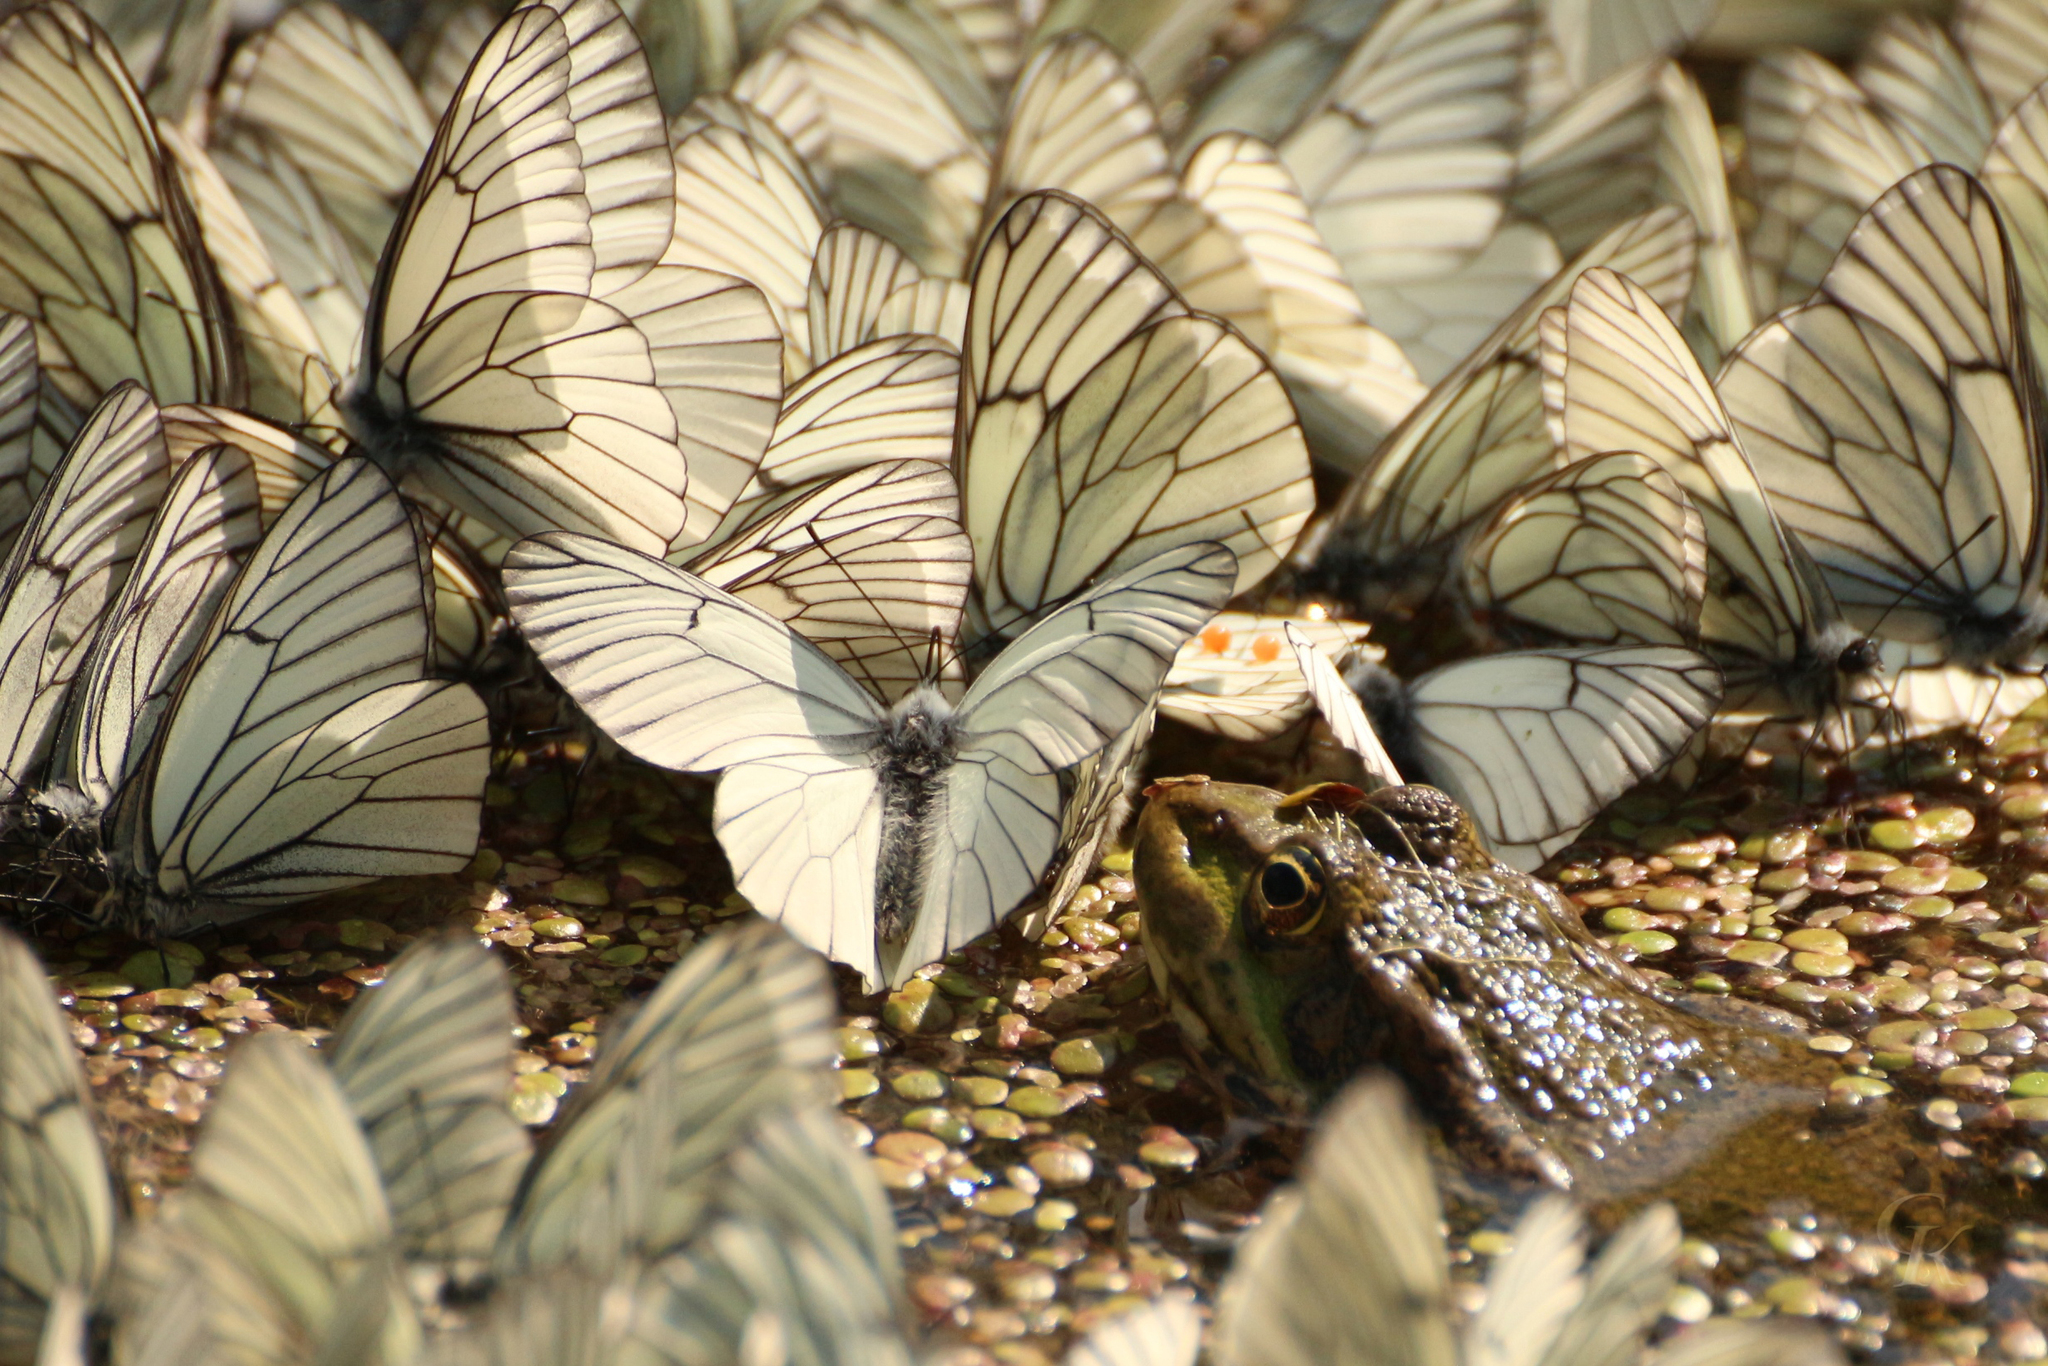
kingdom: Animalia
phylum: Arthropoda
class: Insecta
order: Lepidoptera
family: Pieridae
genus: Aporia
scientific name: Aporia crataegi
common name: Black-veined white
